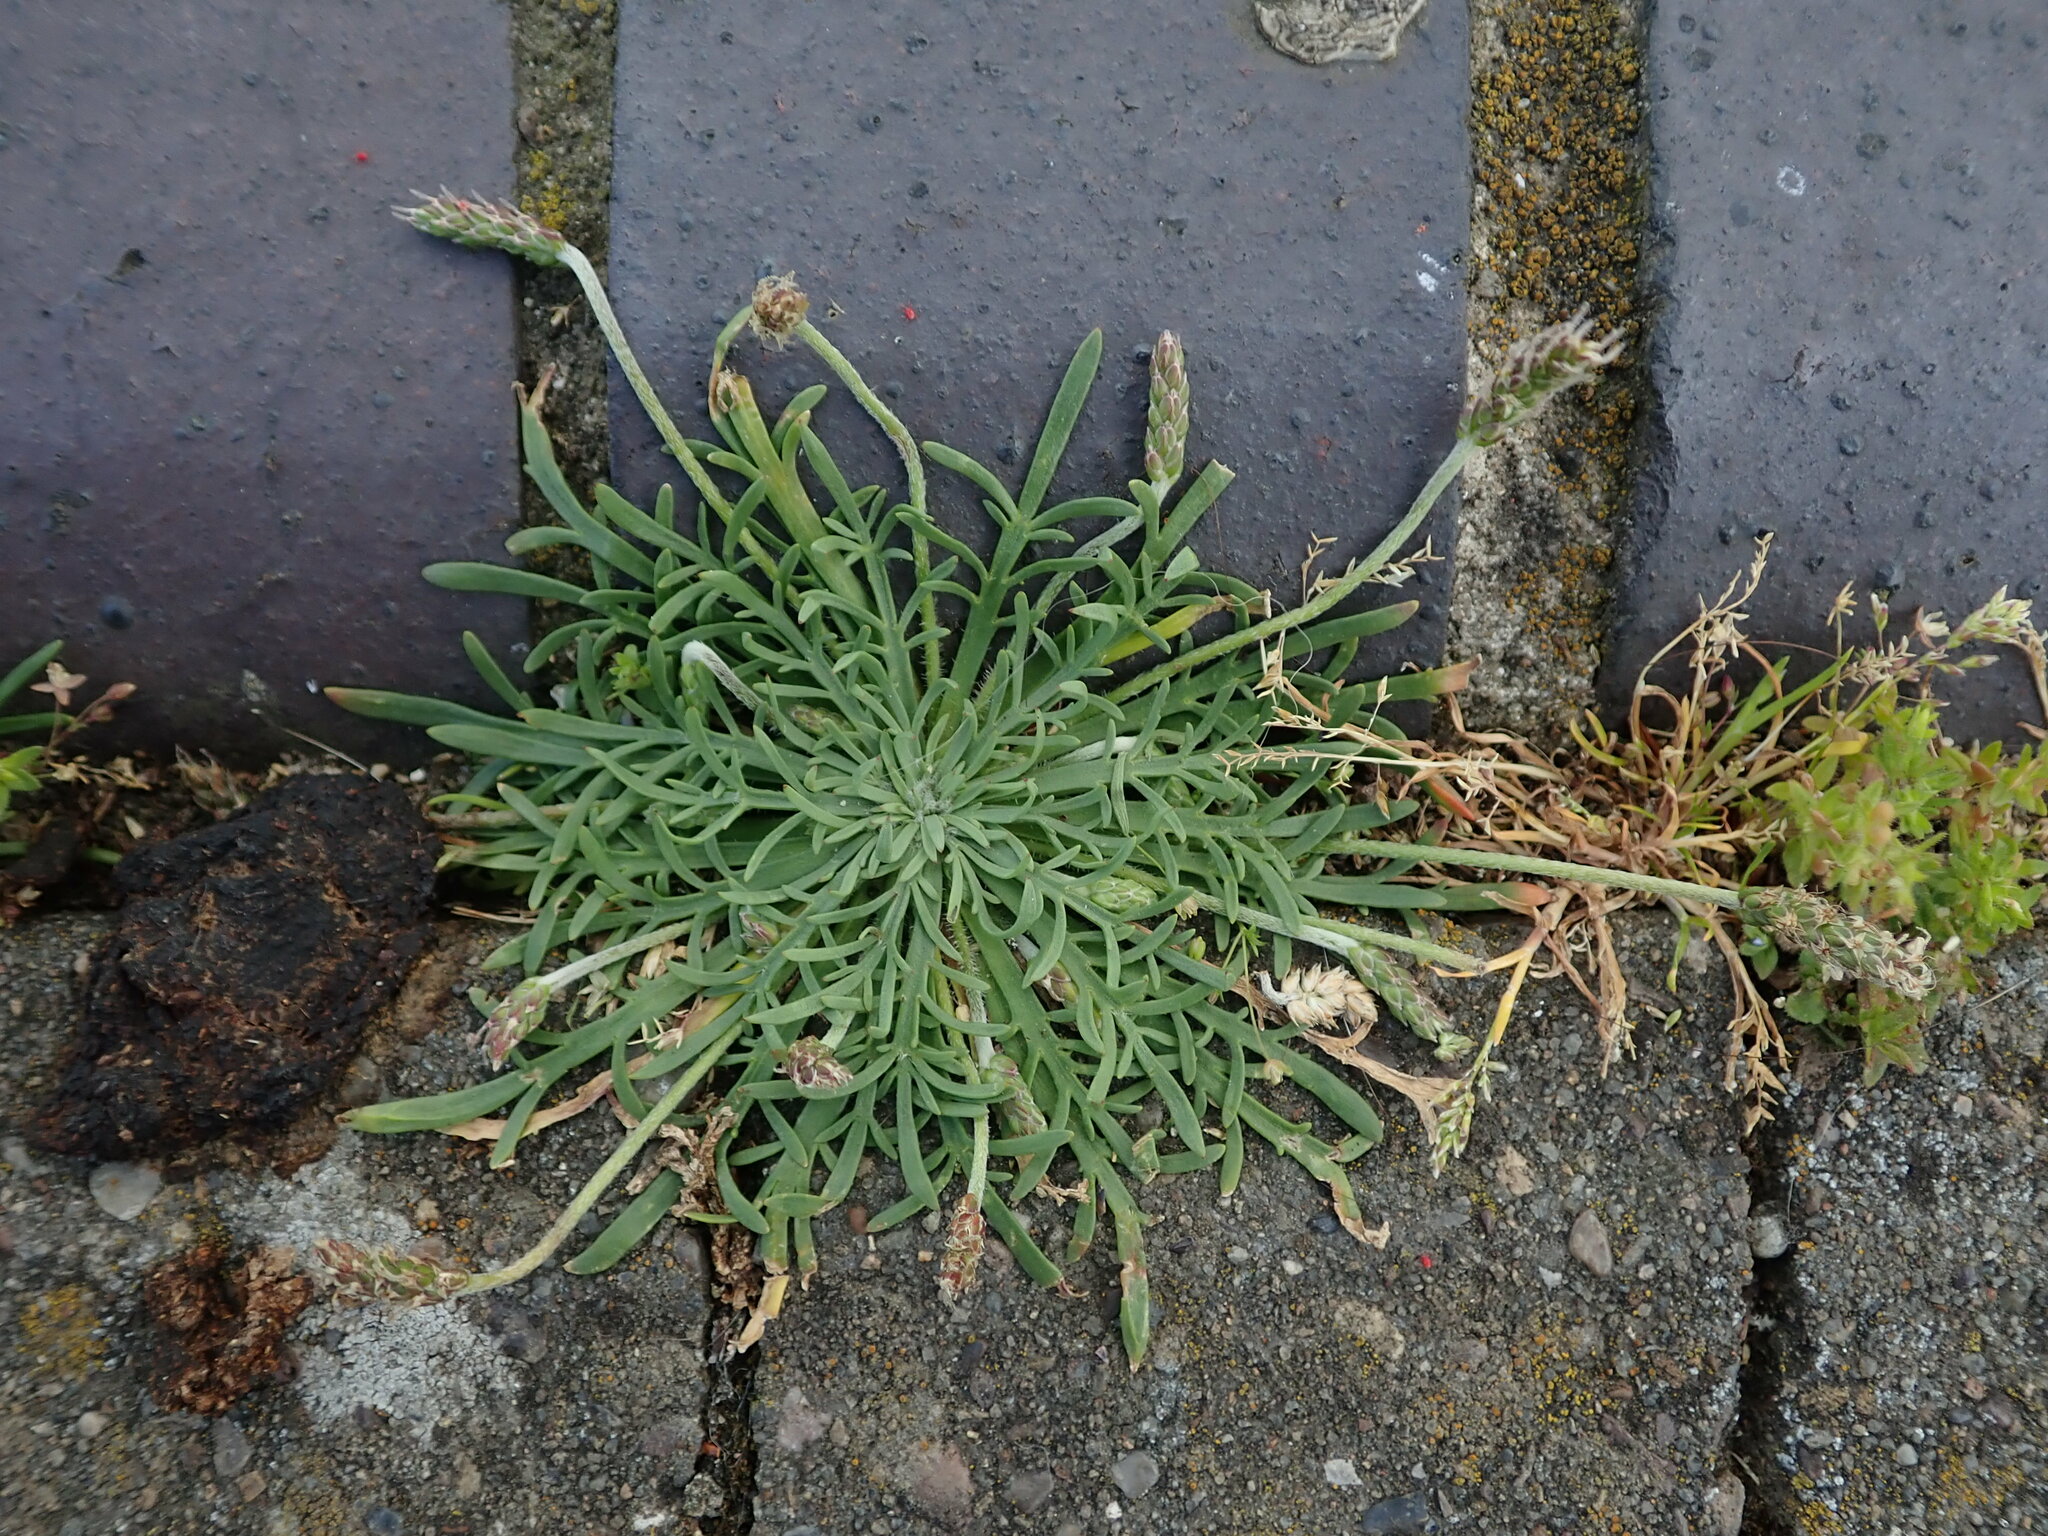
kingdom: Plantae
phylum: Tracheophyta
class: Magnoliopsida
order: Lamiales
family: Plantaginaceae
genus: Plantago
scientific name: Plantago coronopus
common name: Buck's-horn plantain
